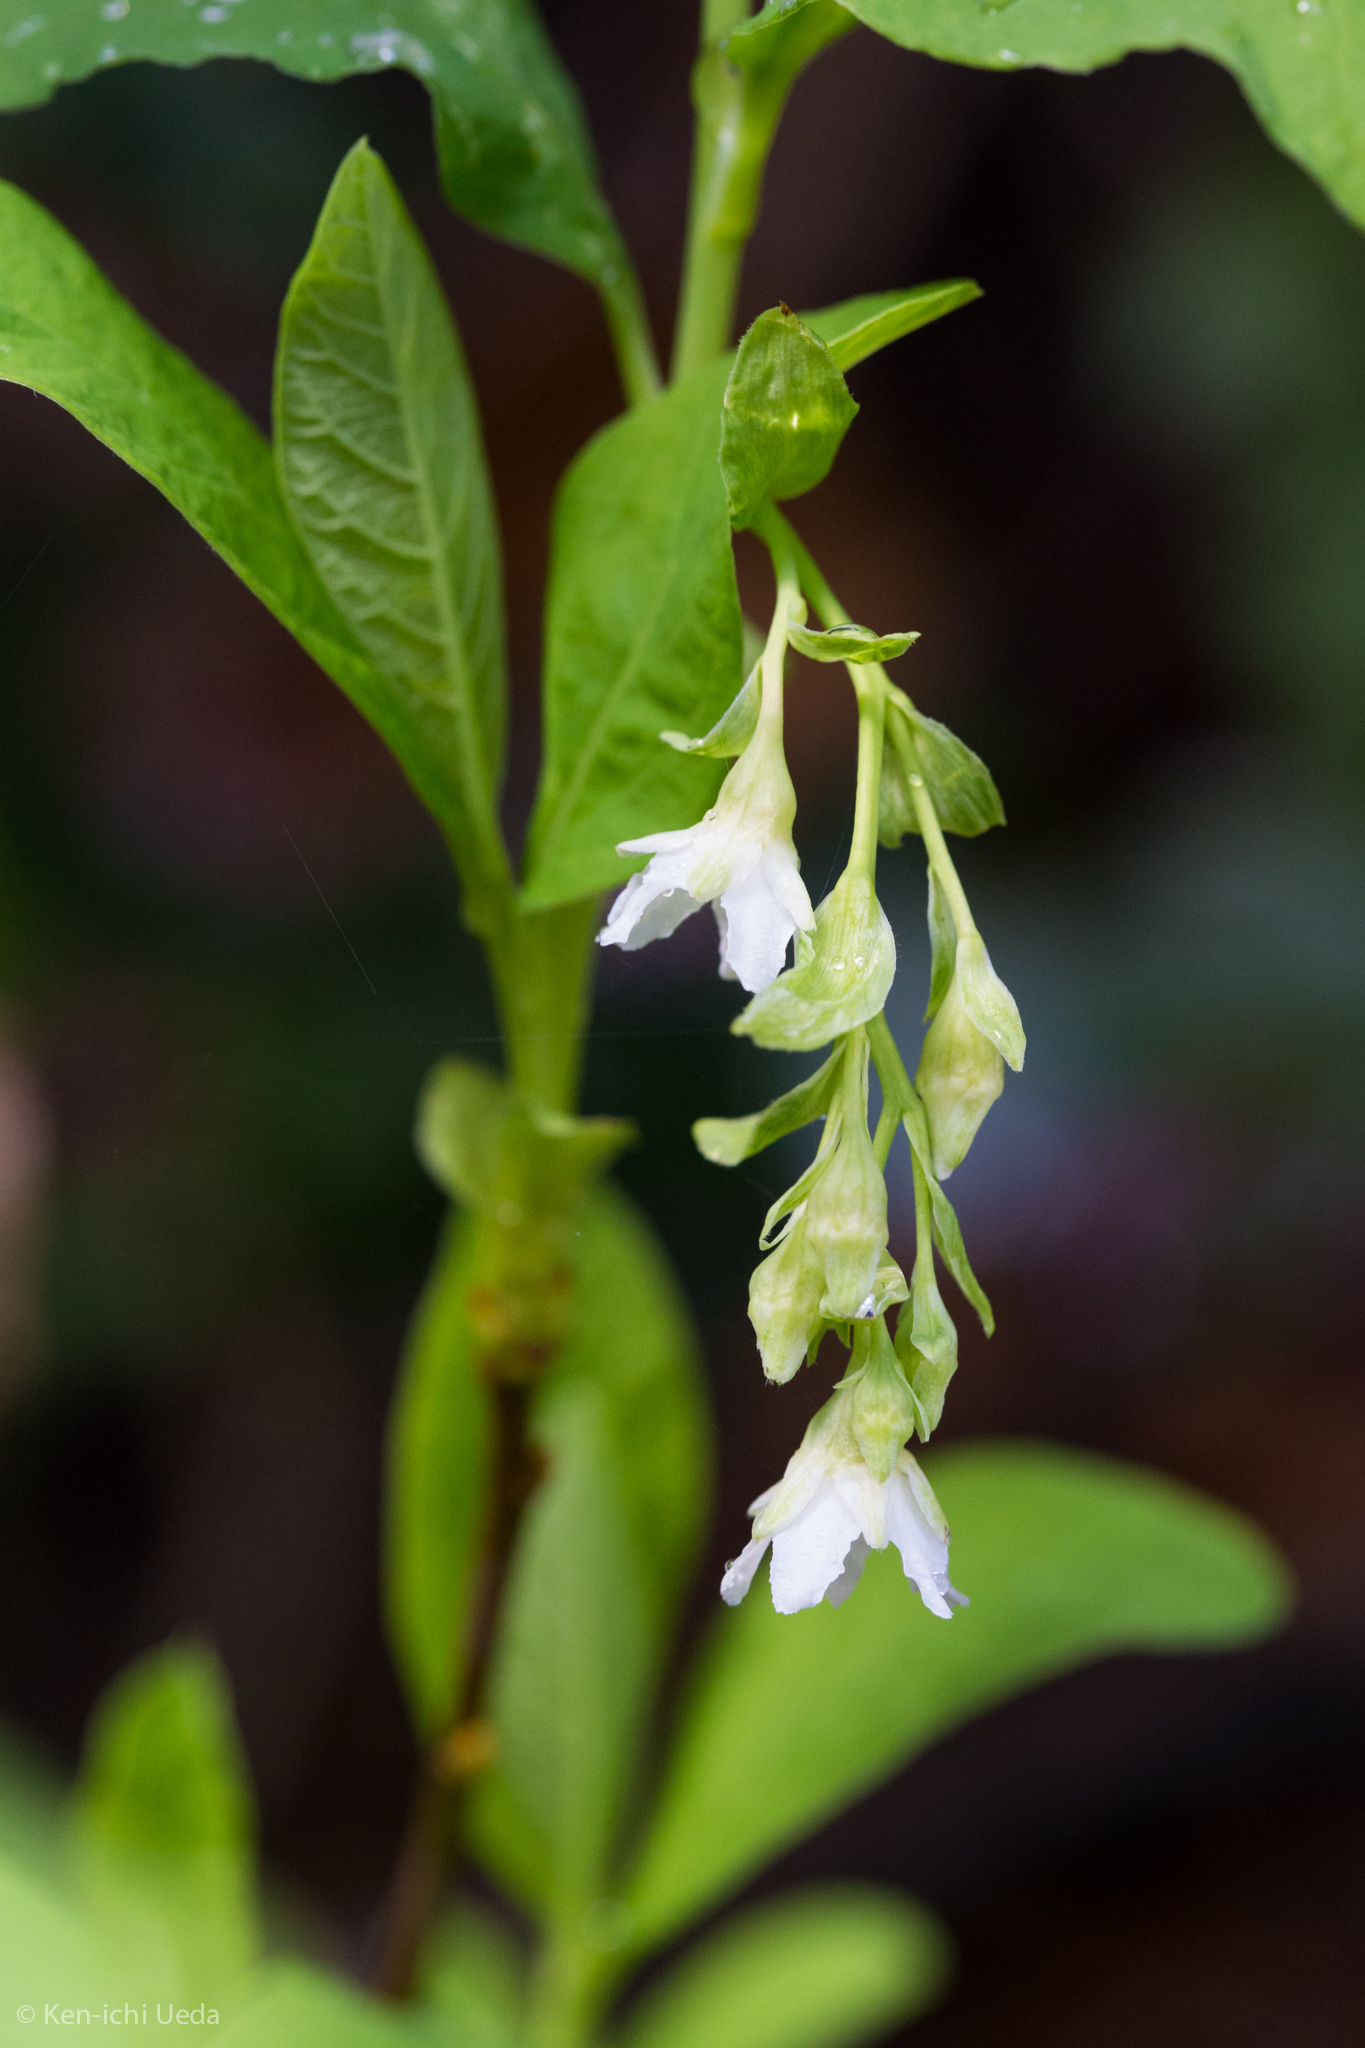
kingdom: Plantae
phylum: Tracheophyta
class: Magnoliopsida
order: Rosales
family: Rosaceae
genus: Oemleria
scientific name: Oemleria cerasiformis
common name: Osoberry
